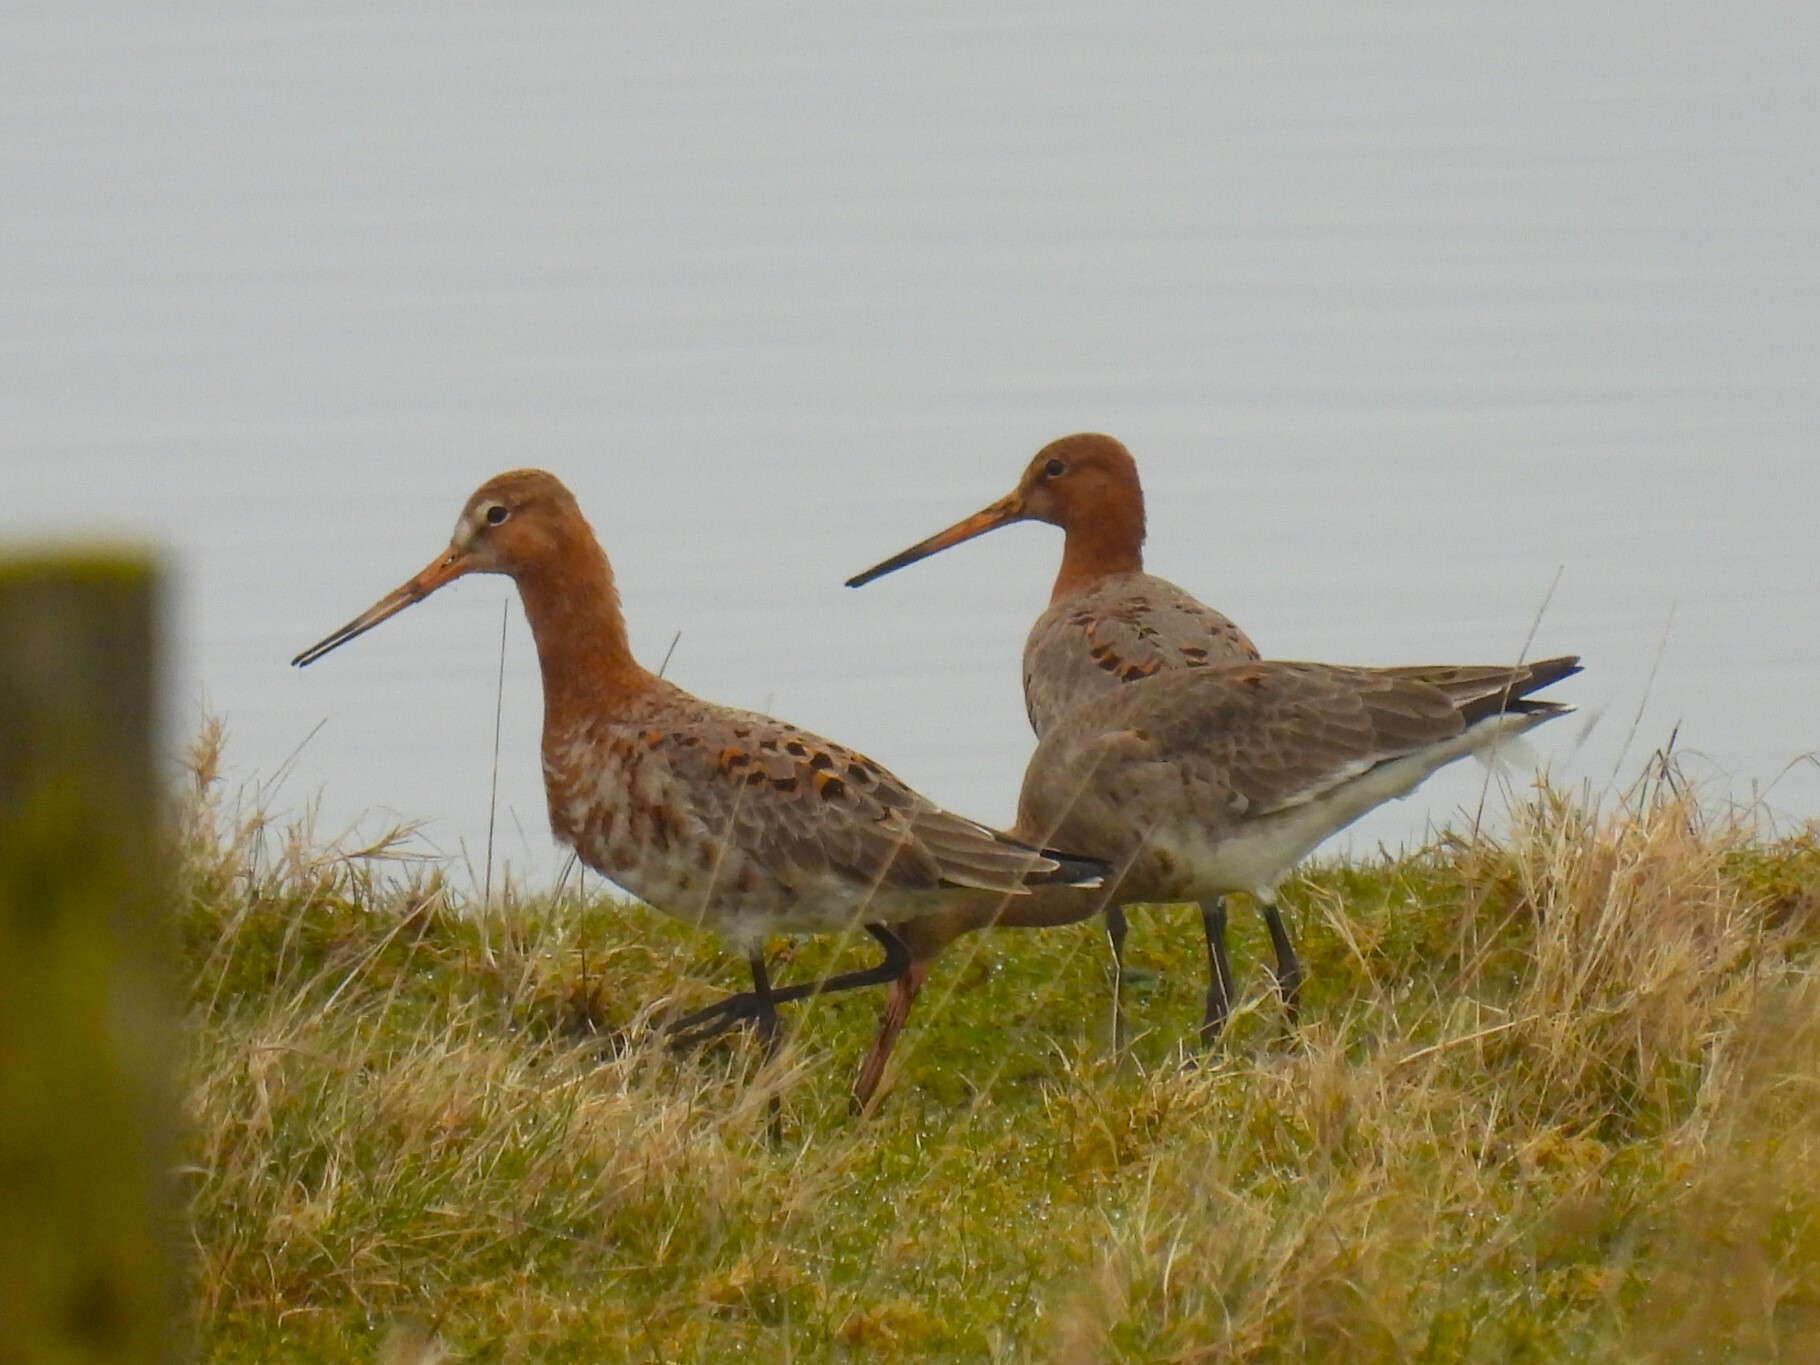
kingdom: Animalia
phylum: Chordata
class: Aves
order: Charadriiformes
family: Scolopacidae
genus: Limosa
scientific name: Limosa limosa
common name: Black-tailed godwit
